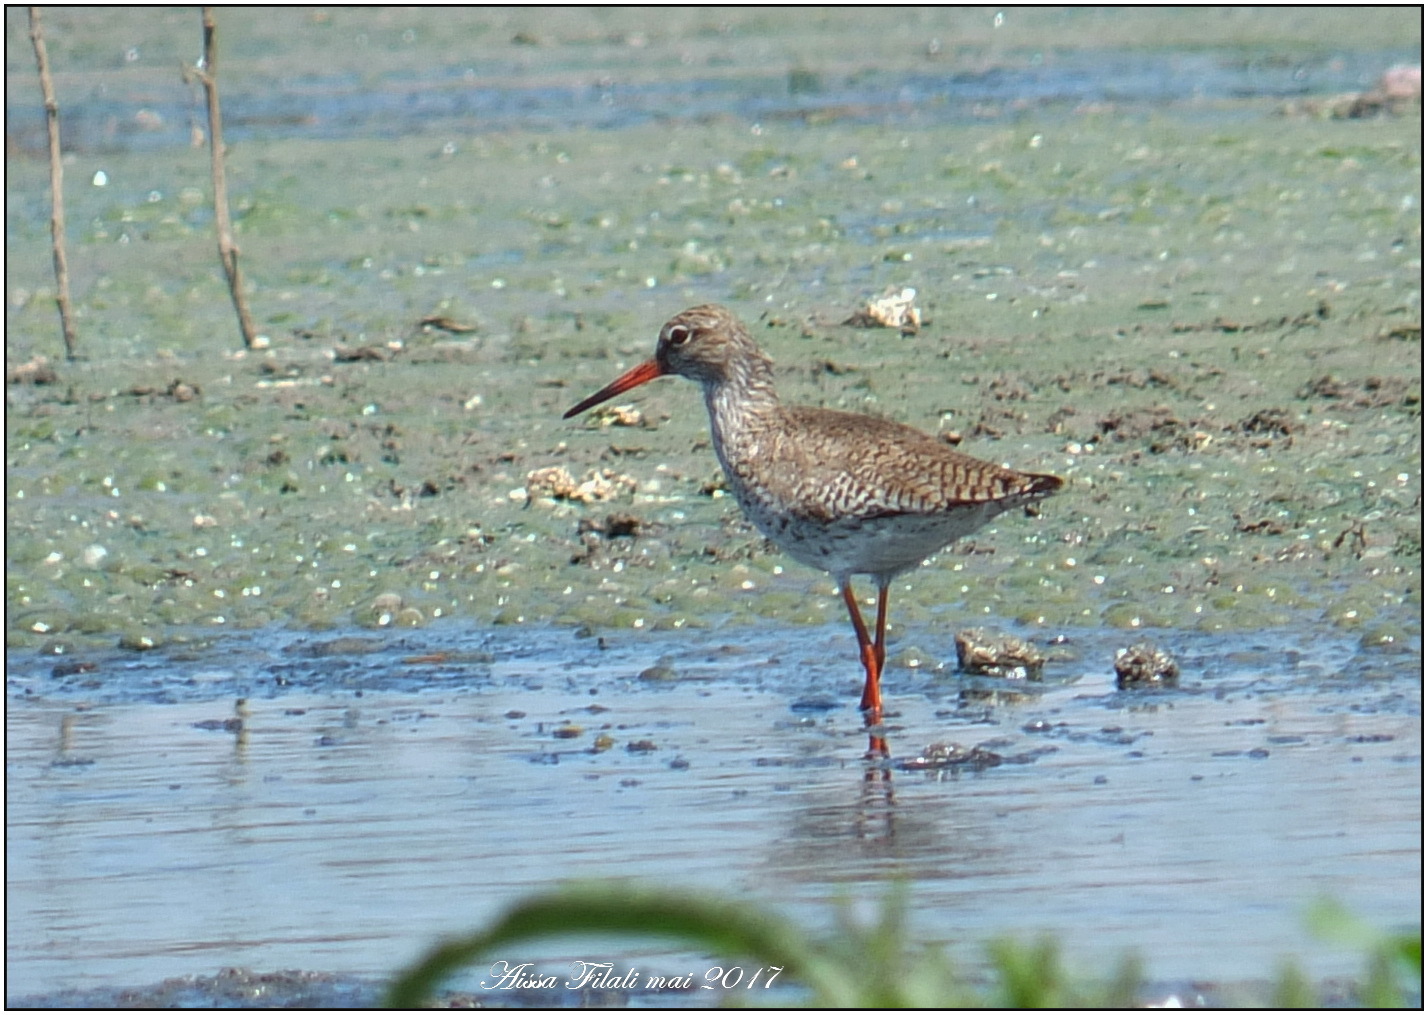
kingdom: Animalia
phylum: Chordata
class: Aves
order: Charadriiformes
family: Scolopacidae
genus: Tringa
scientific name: Tringa totanus
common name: Common redshank
